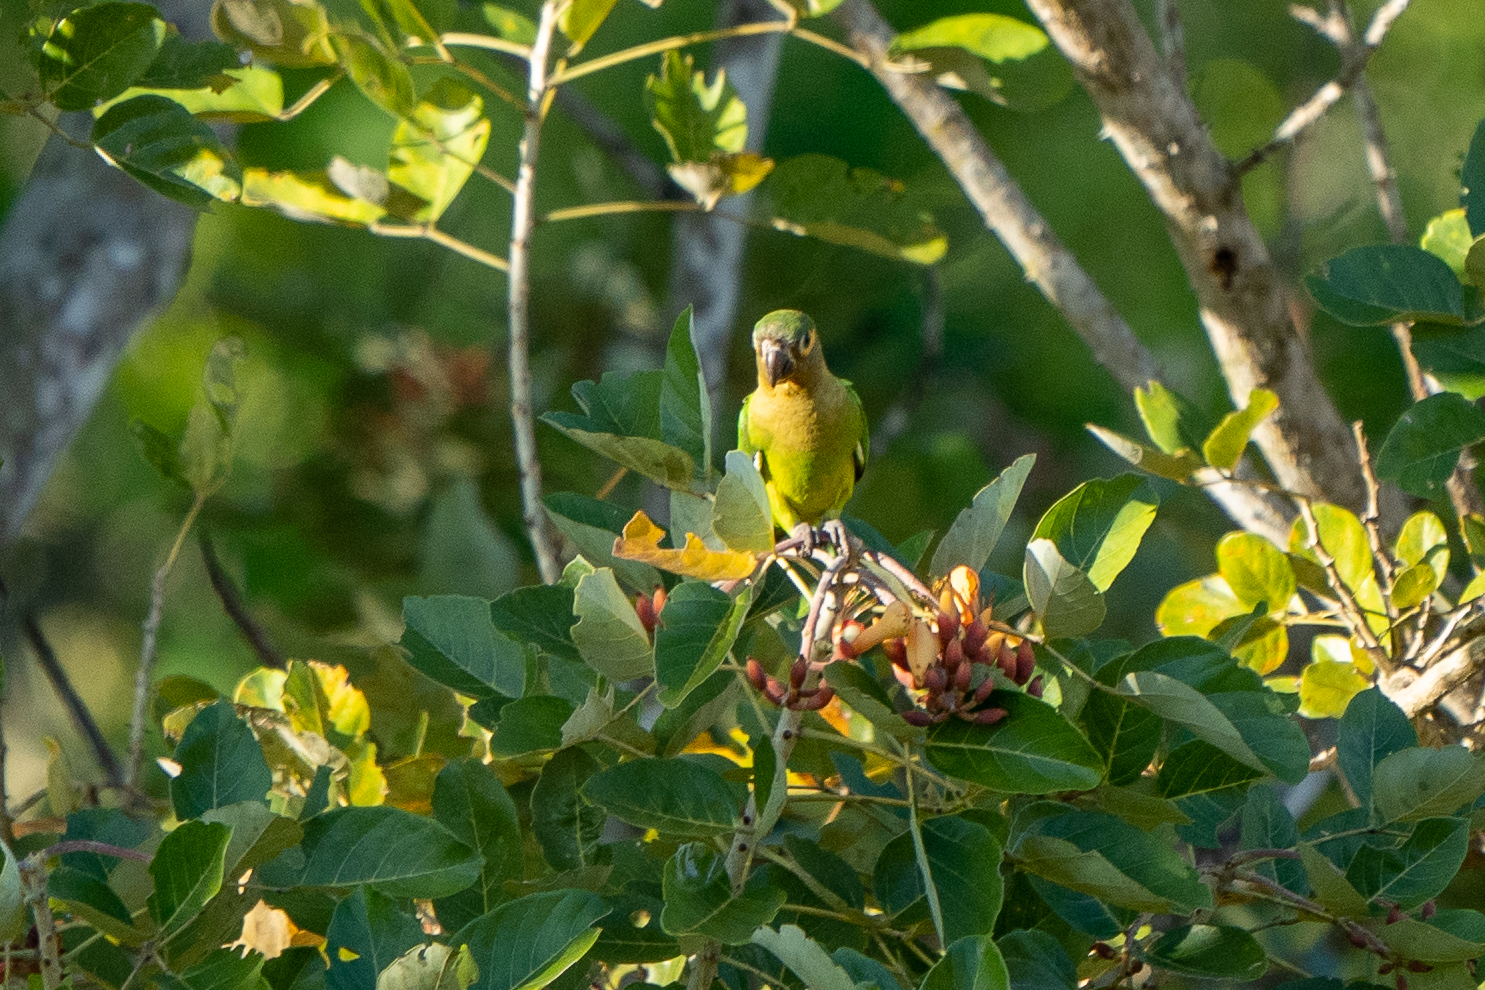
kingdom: Animalia
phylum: Chordata
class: Aves
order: Psittaciformes
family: Psittacidae
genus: Aratinga
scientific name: Aratinga pertinax
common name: Brown-throated parakeet
